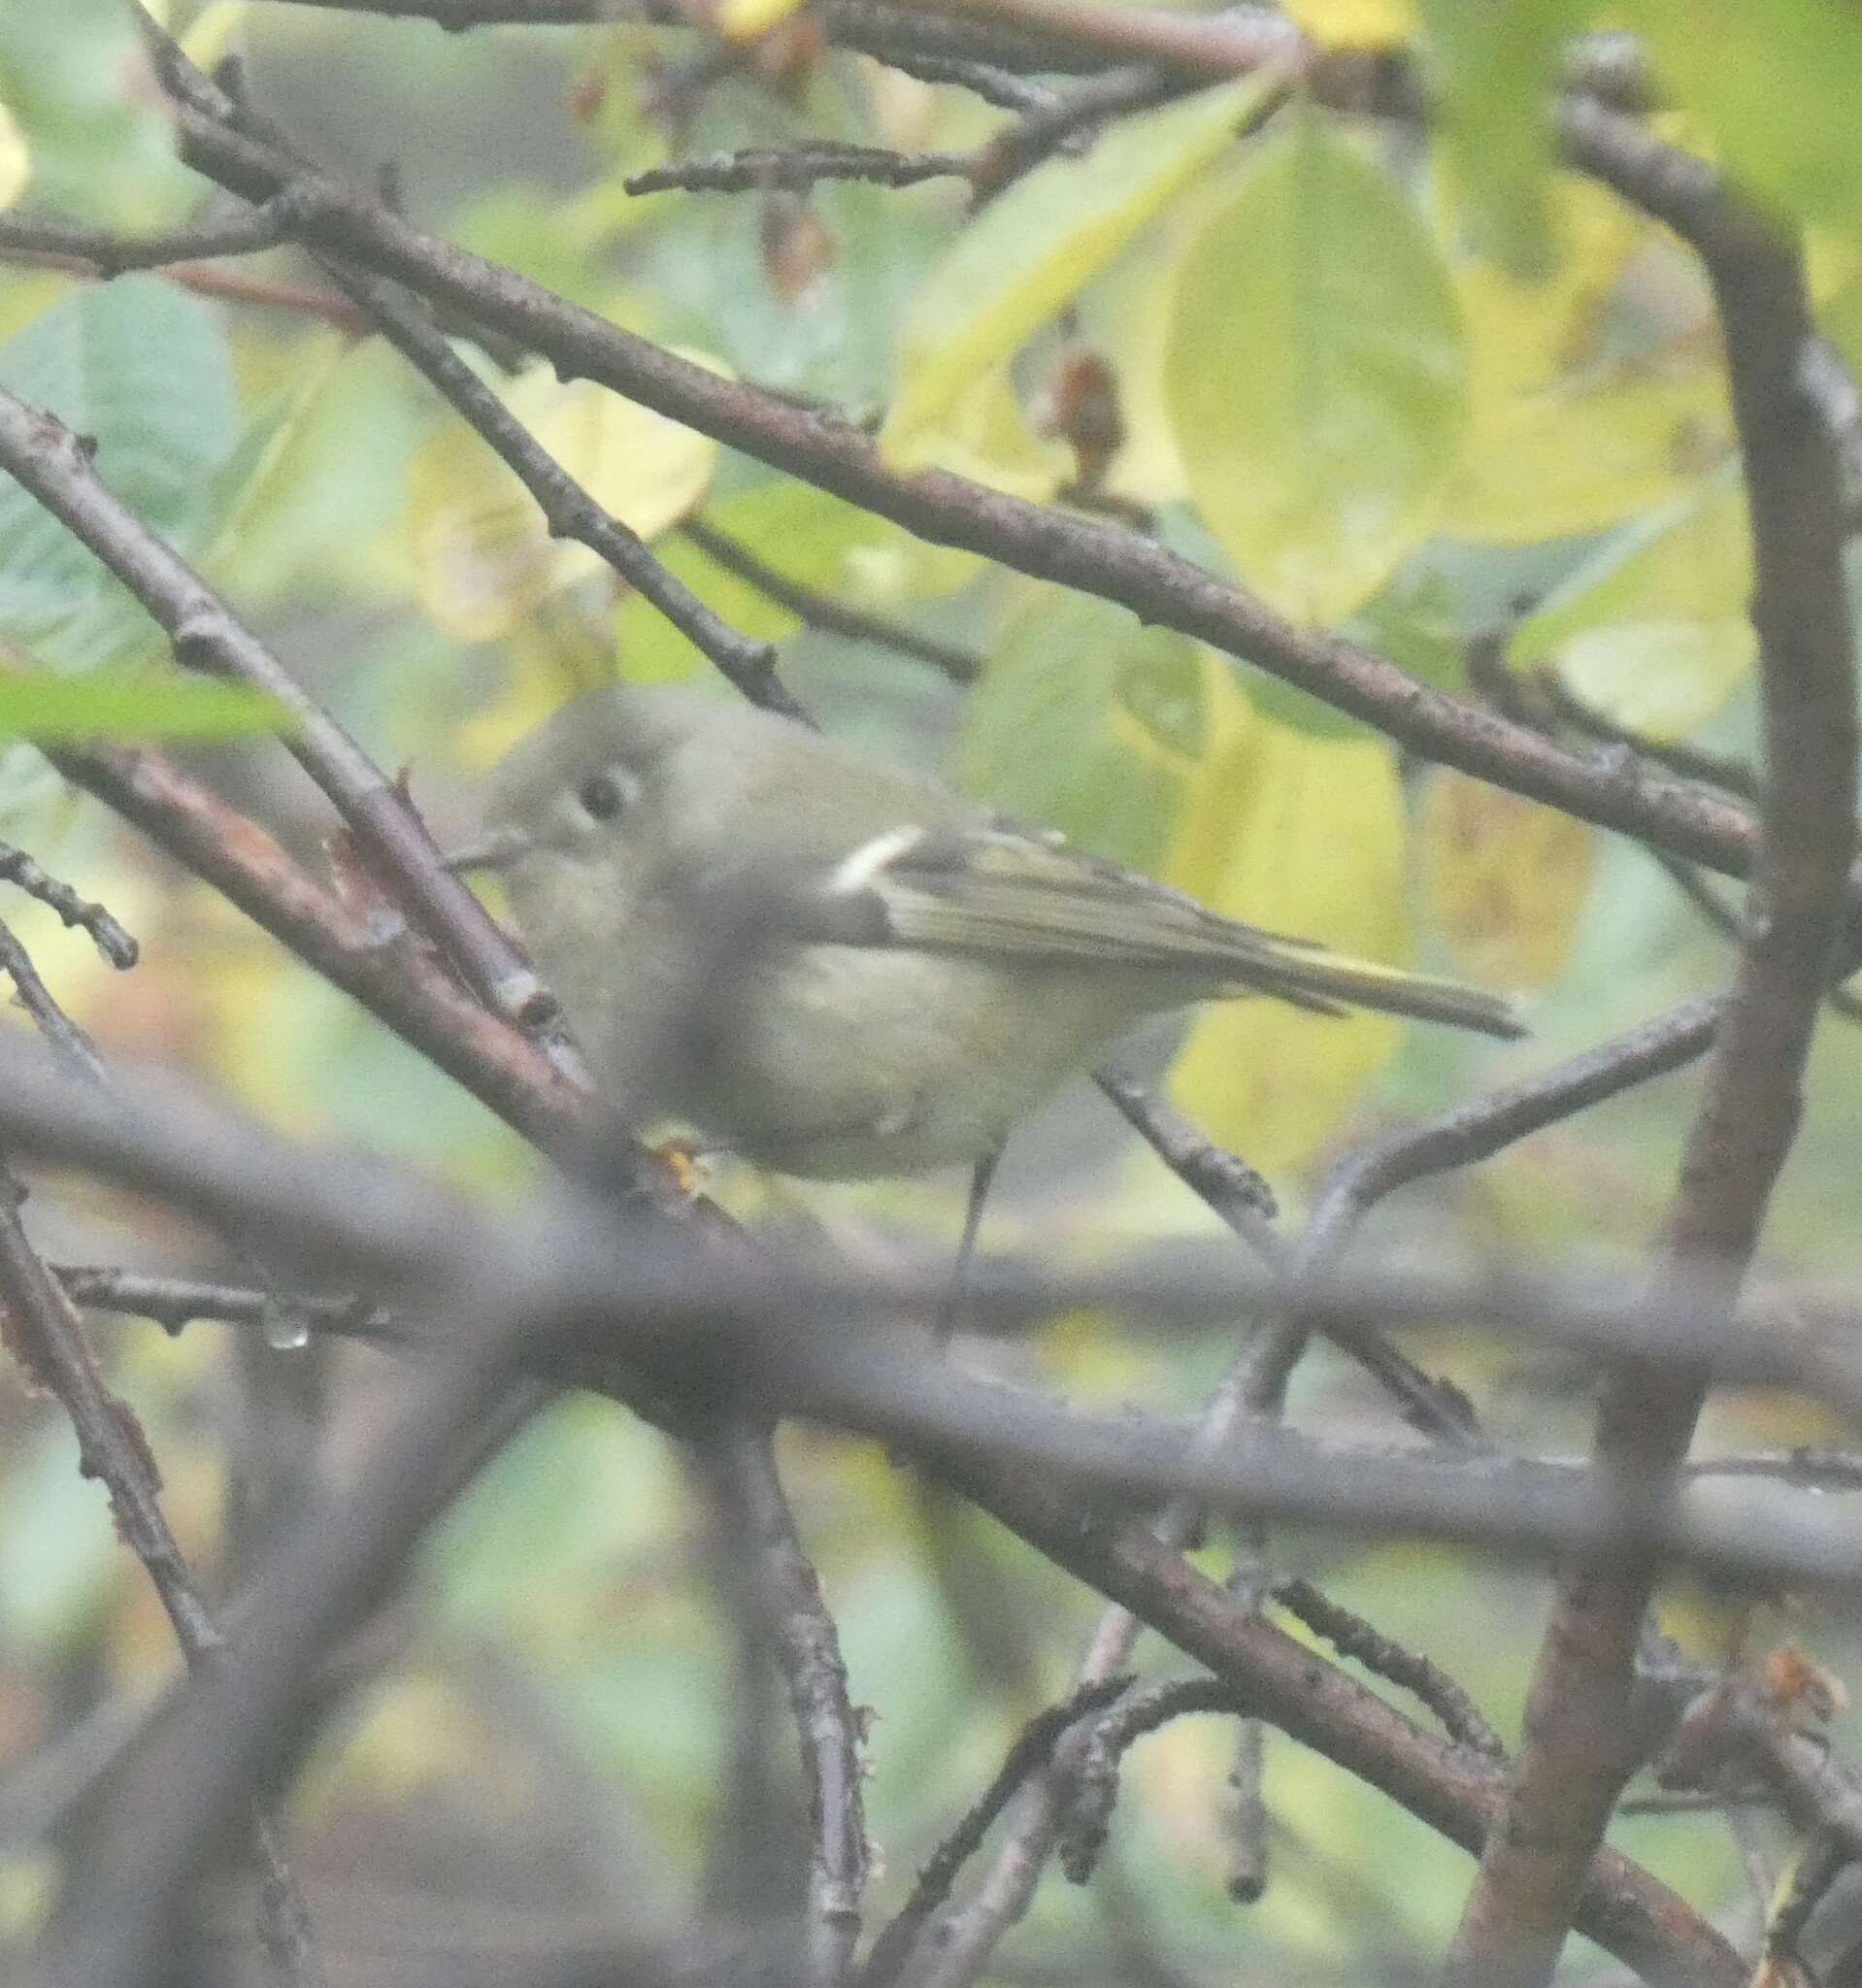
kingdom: Animalia
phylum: Chordata
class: Aves
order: Passeriformes
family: Regulidae
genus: Regulus
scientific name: Regulus calendula
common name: Ruby-crowned kinglet
